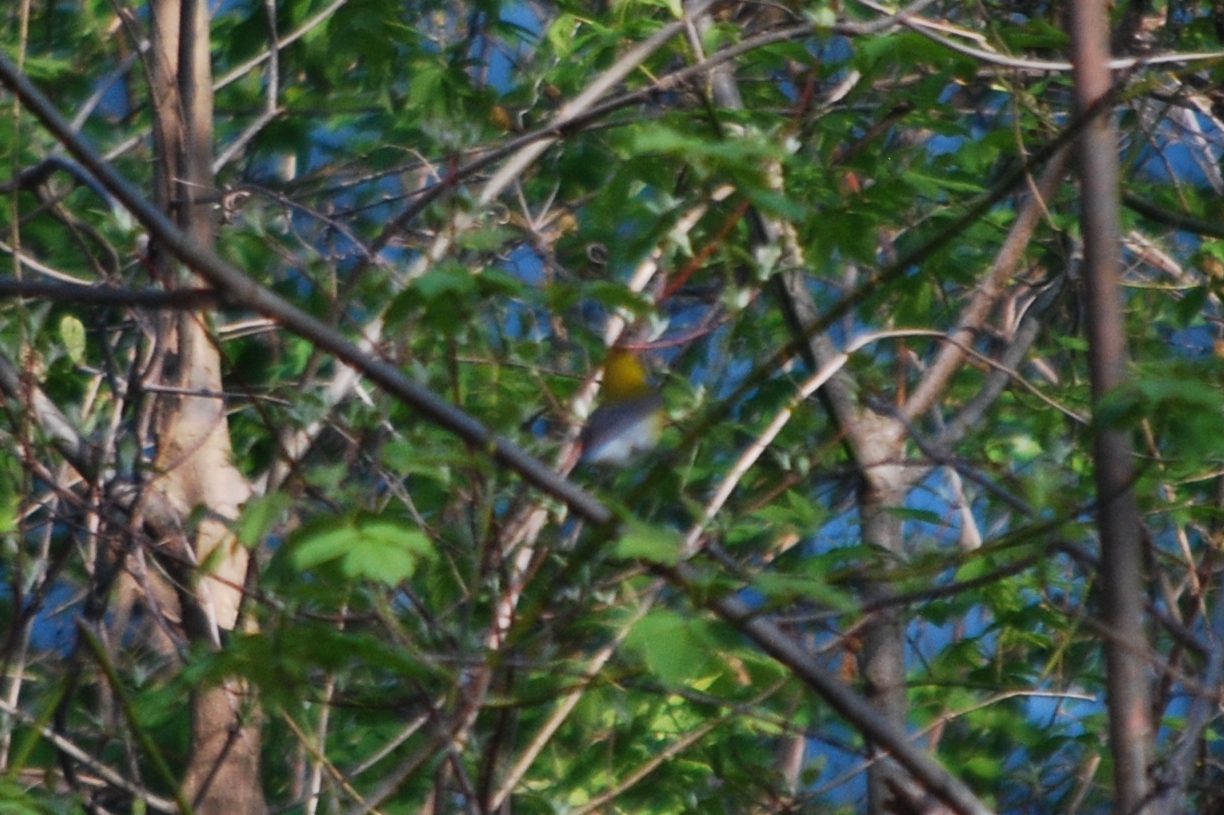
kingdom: Animalia
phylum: Chordata
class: Aves
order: Passeriformes
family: Parulidae
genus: Protonotaria
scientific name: Protonotaria citrea
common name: Prothonotary warbler
